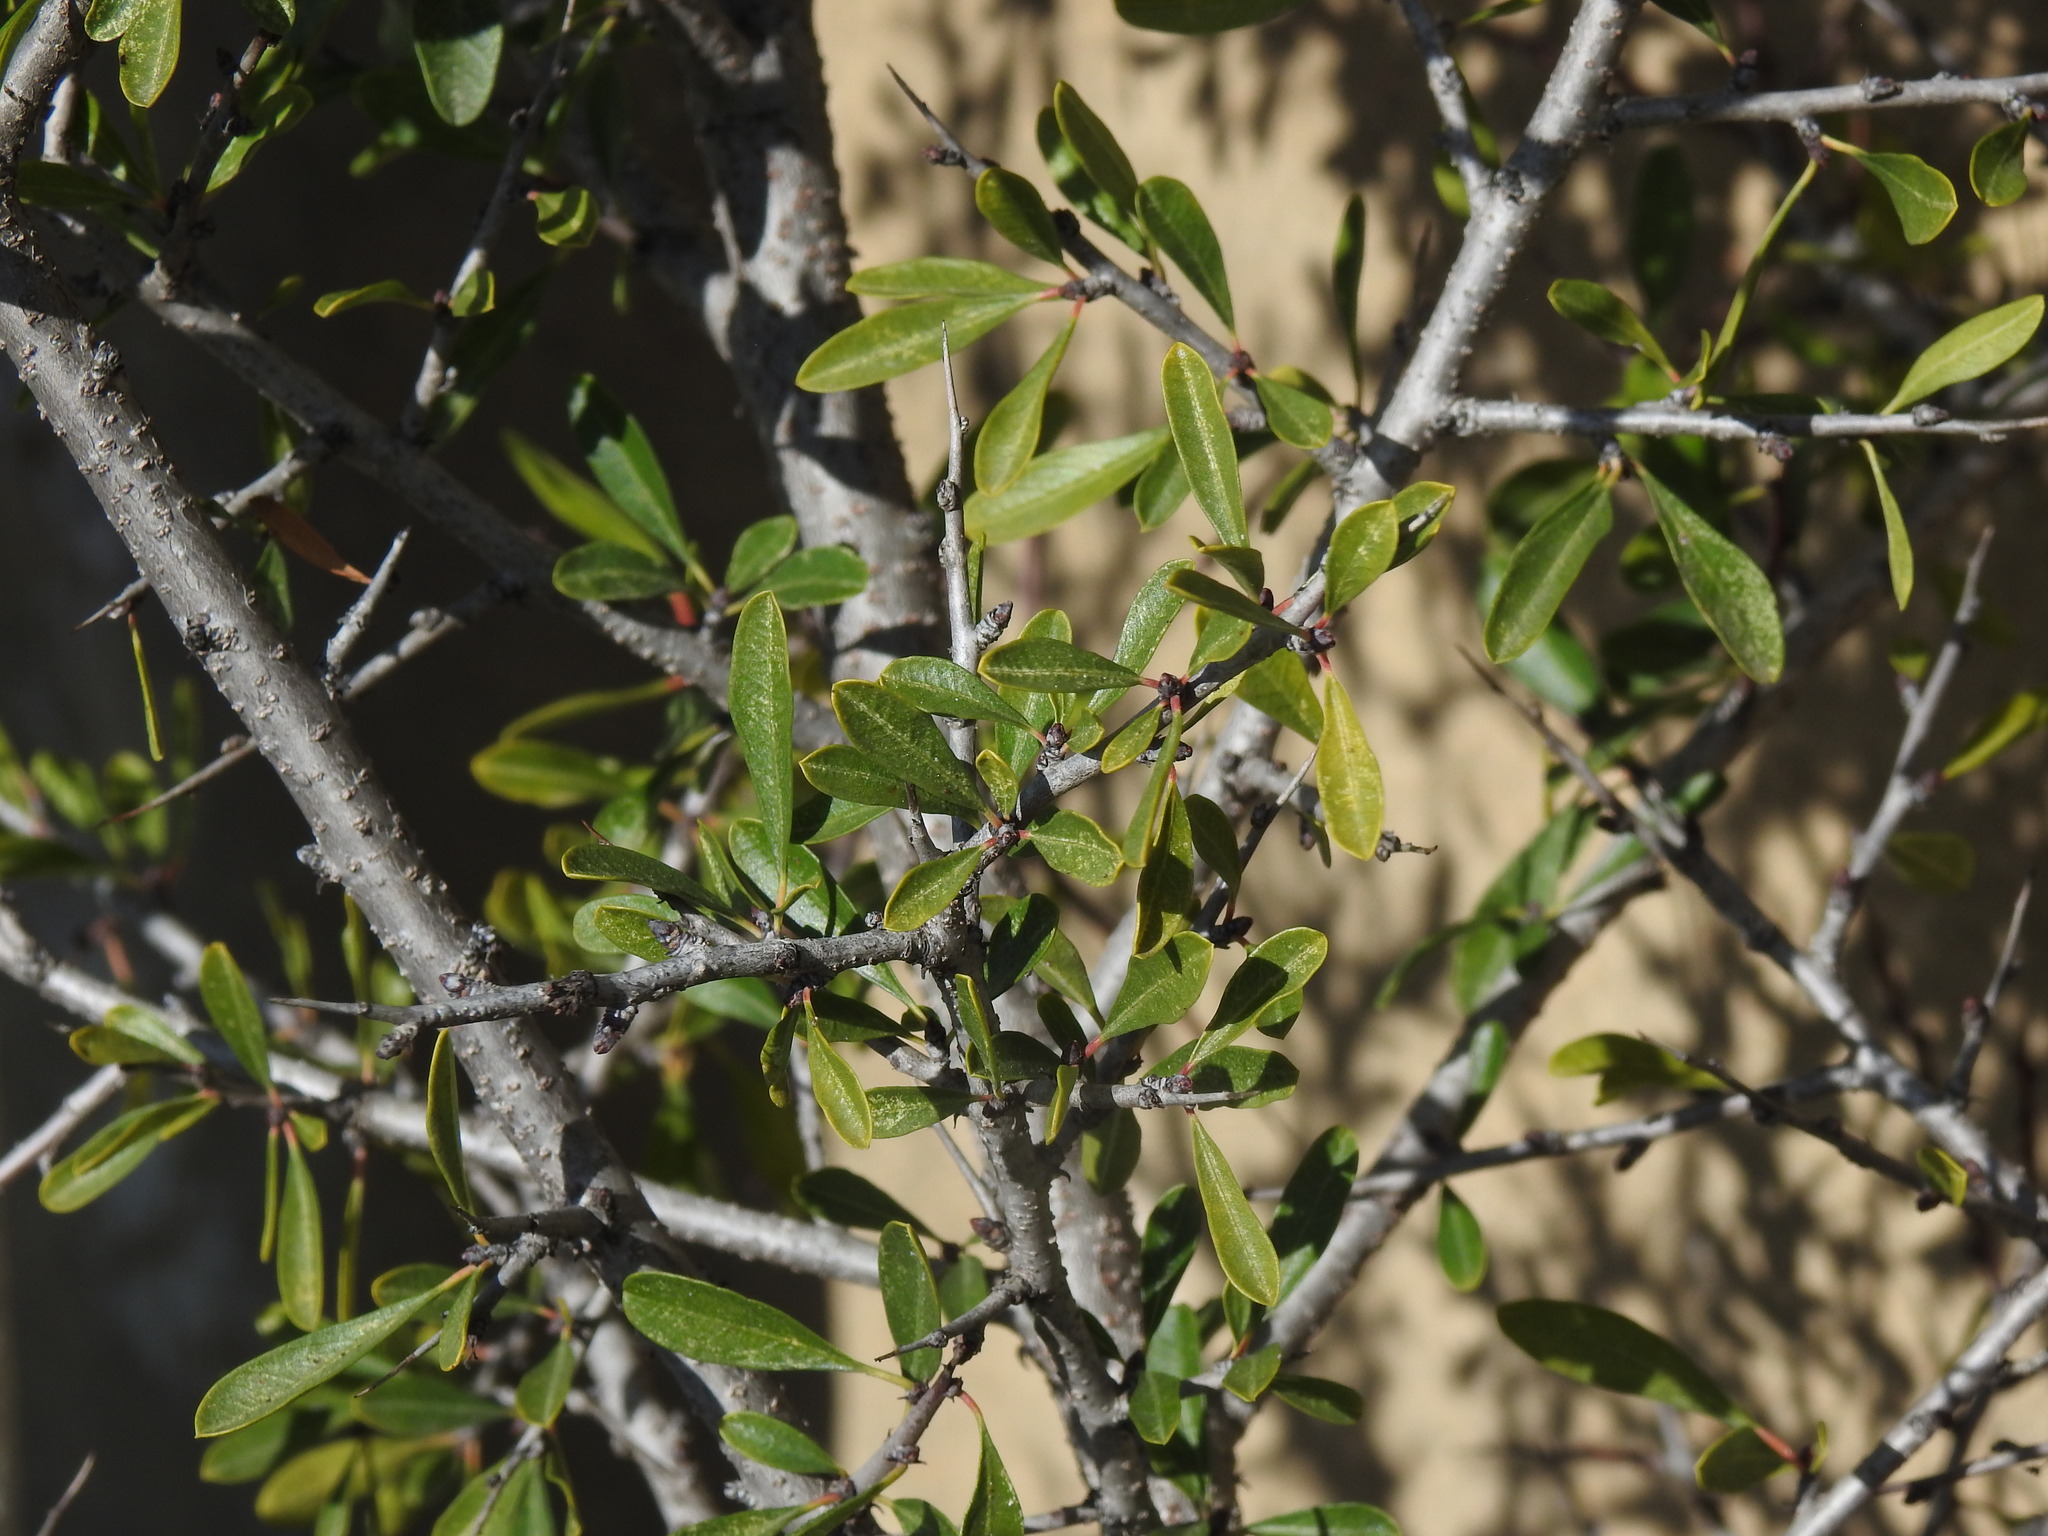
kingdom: Plantae
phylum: Tracheophyta
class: Magnoliopsida
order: Rosales
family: Rhamnaceae
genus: Rhamnus
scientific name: Rhamnus oleoides
